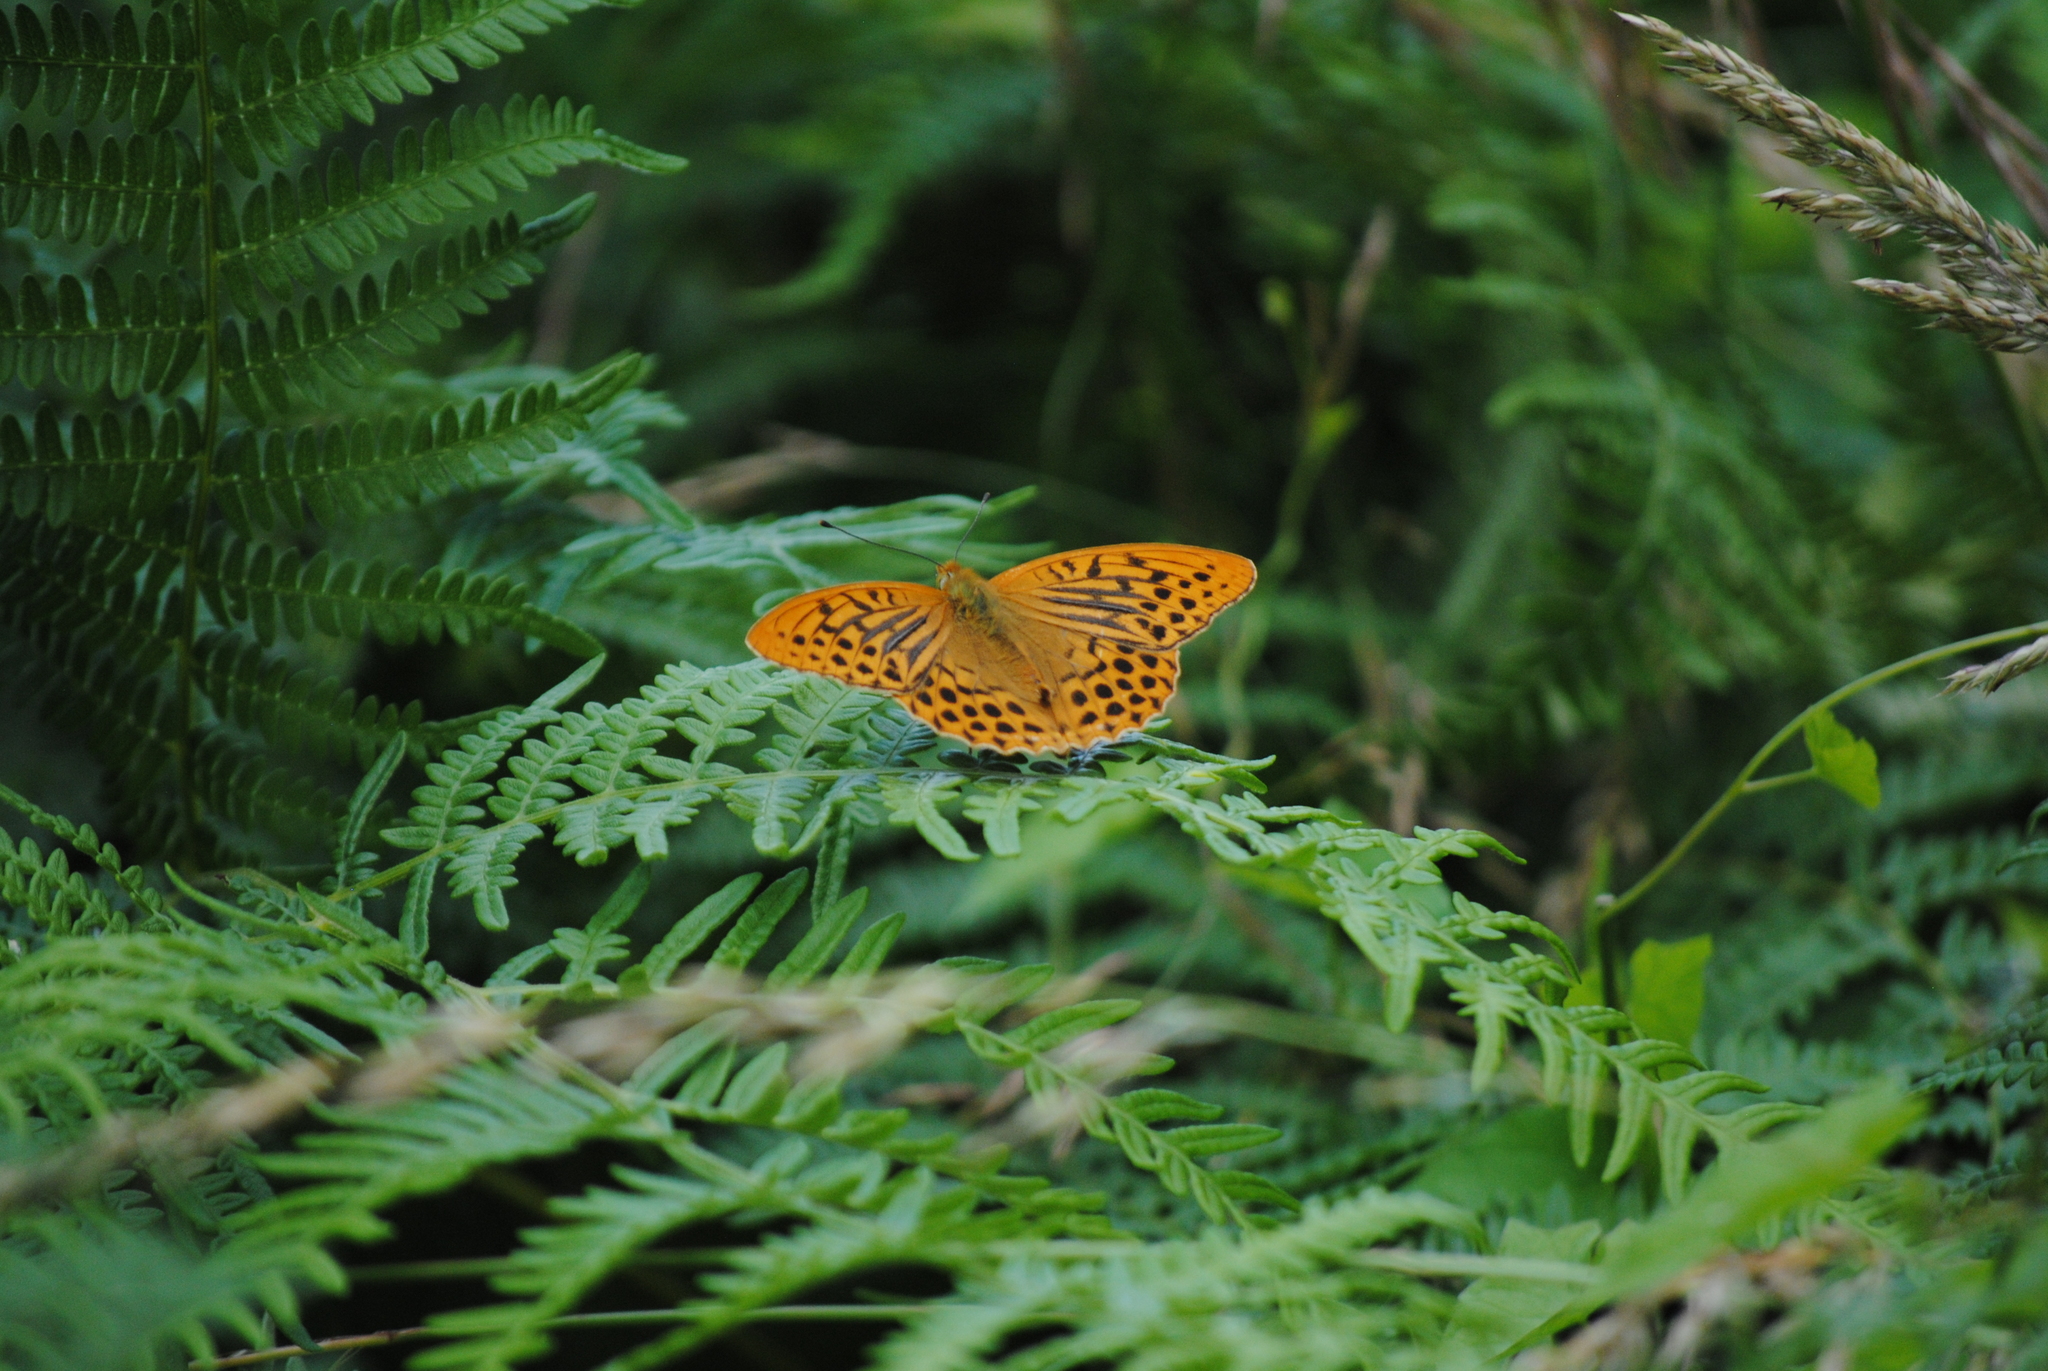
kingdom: Animalia
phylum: Arthropoda
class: Insecta
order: Lepidoptera
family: Nymphalidae
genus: Argynnis
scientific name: Argynnis paphia
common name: Silver-washed fritillary
